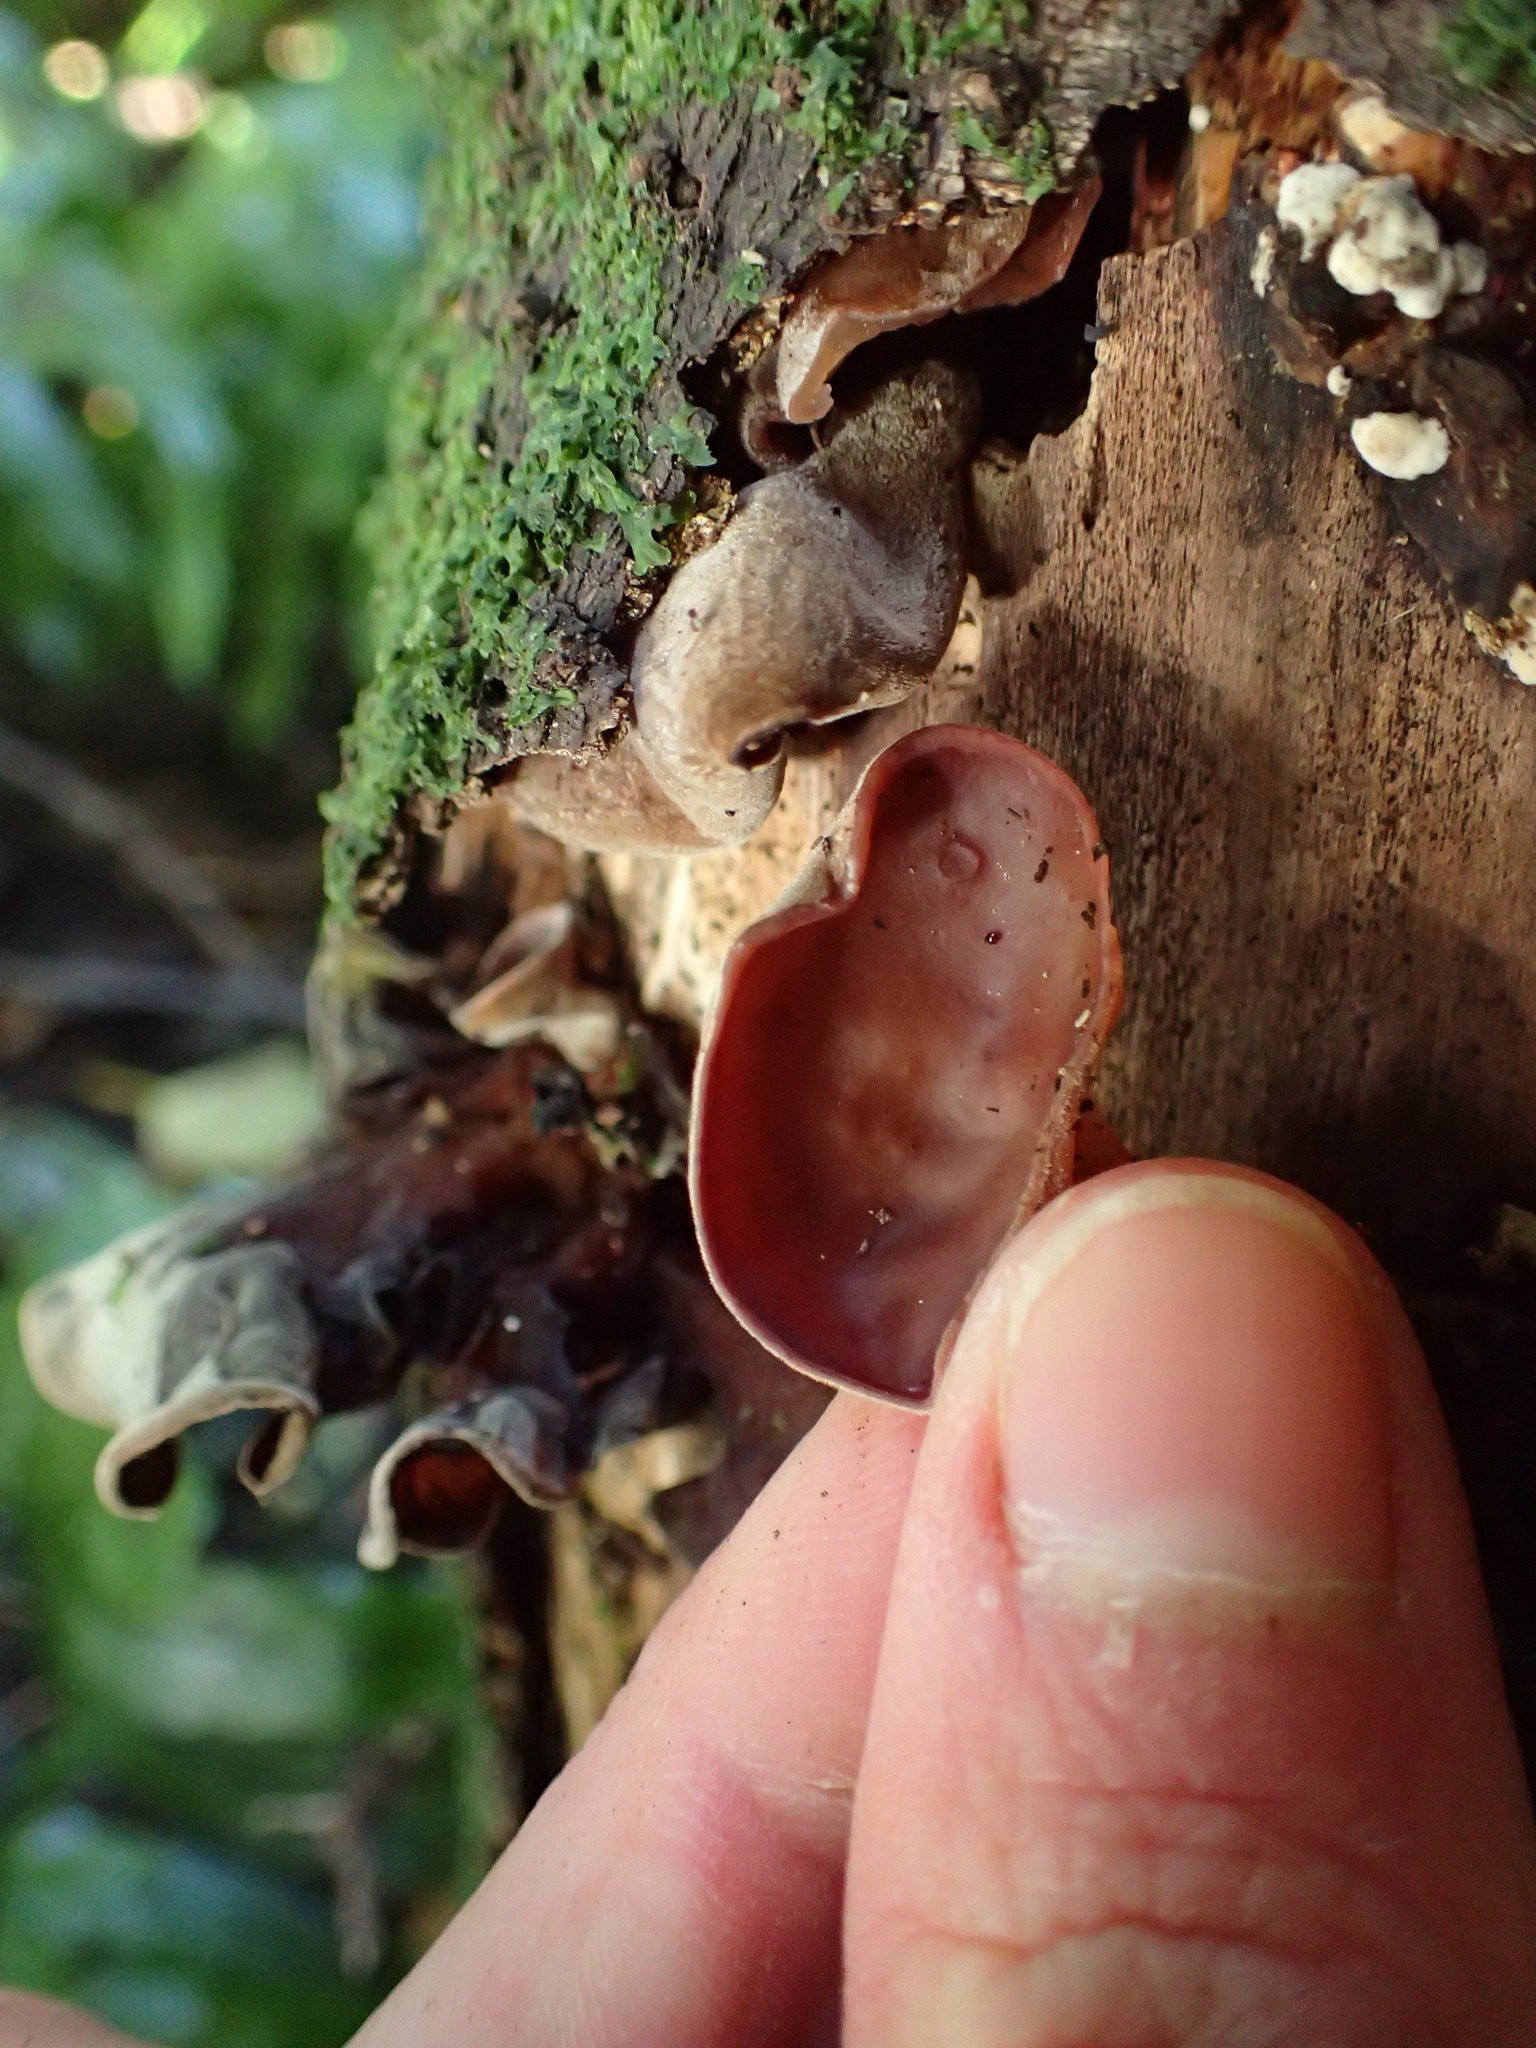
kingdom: Fungi
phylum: Basidiomycota
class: Agaricomycetes
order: Auriculariales
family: Auriculariaceae
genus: Auricularia
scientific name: Auricularia cornea
